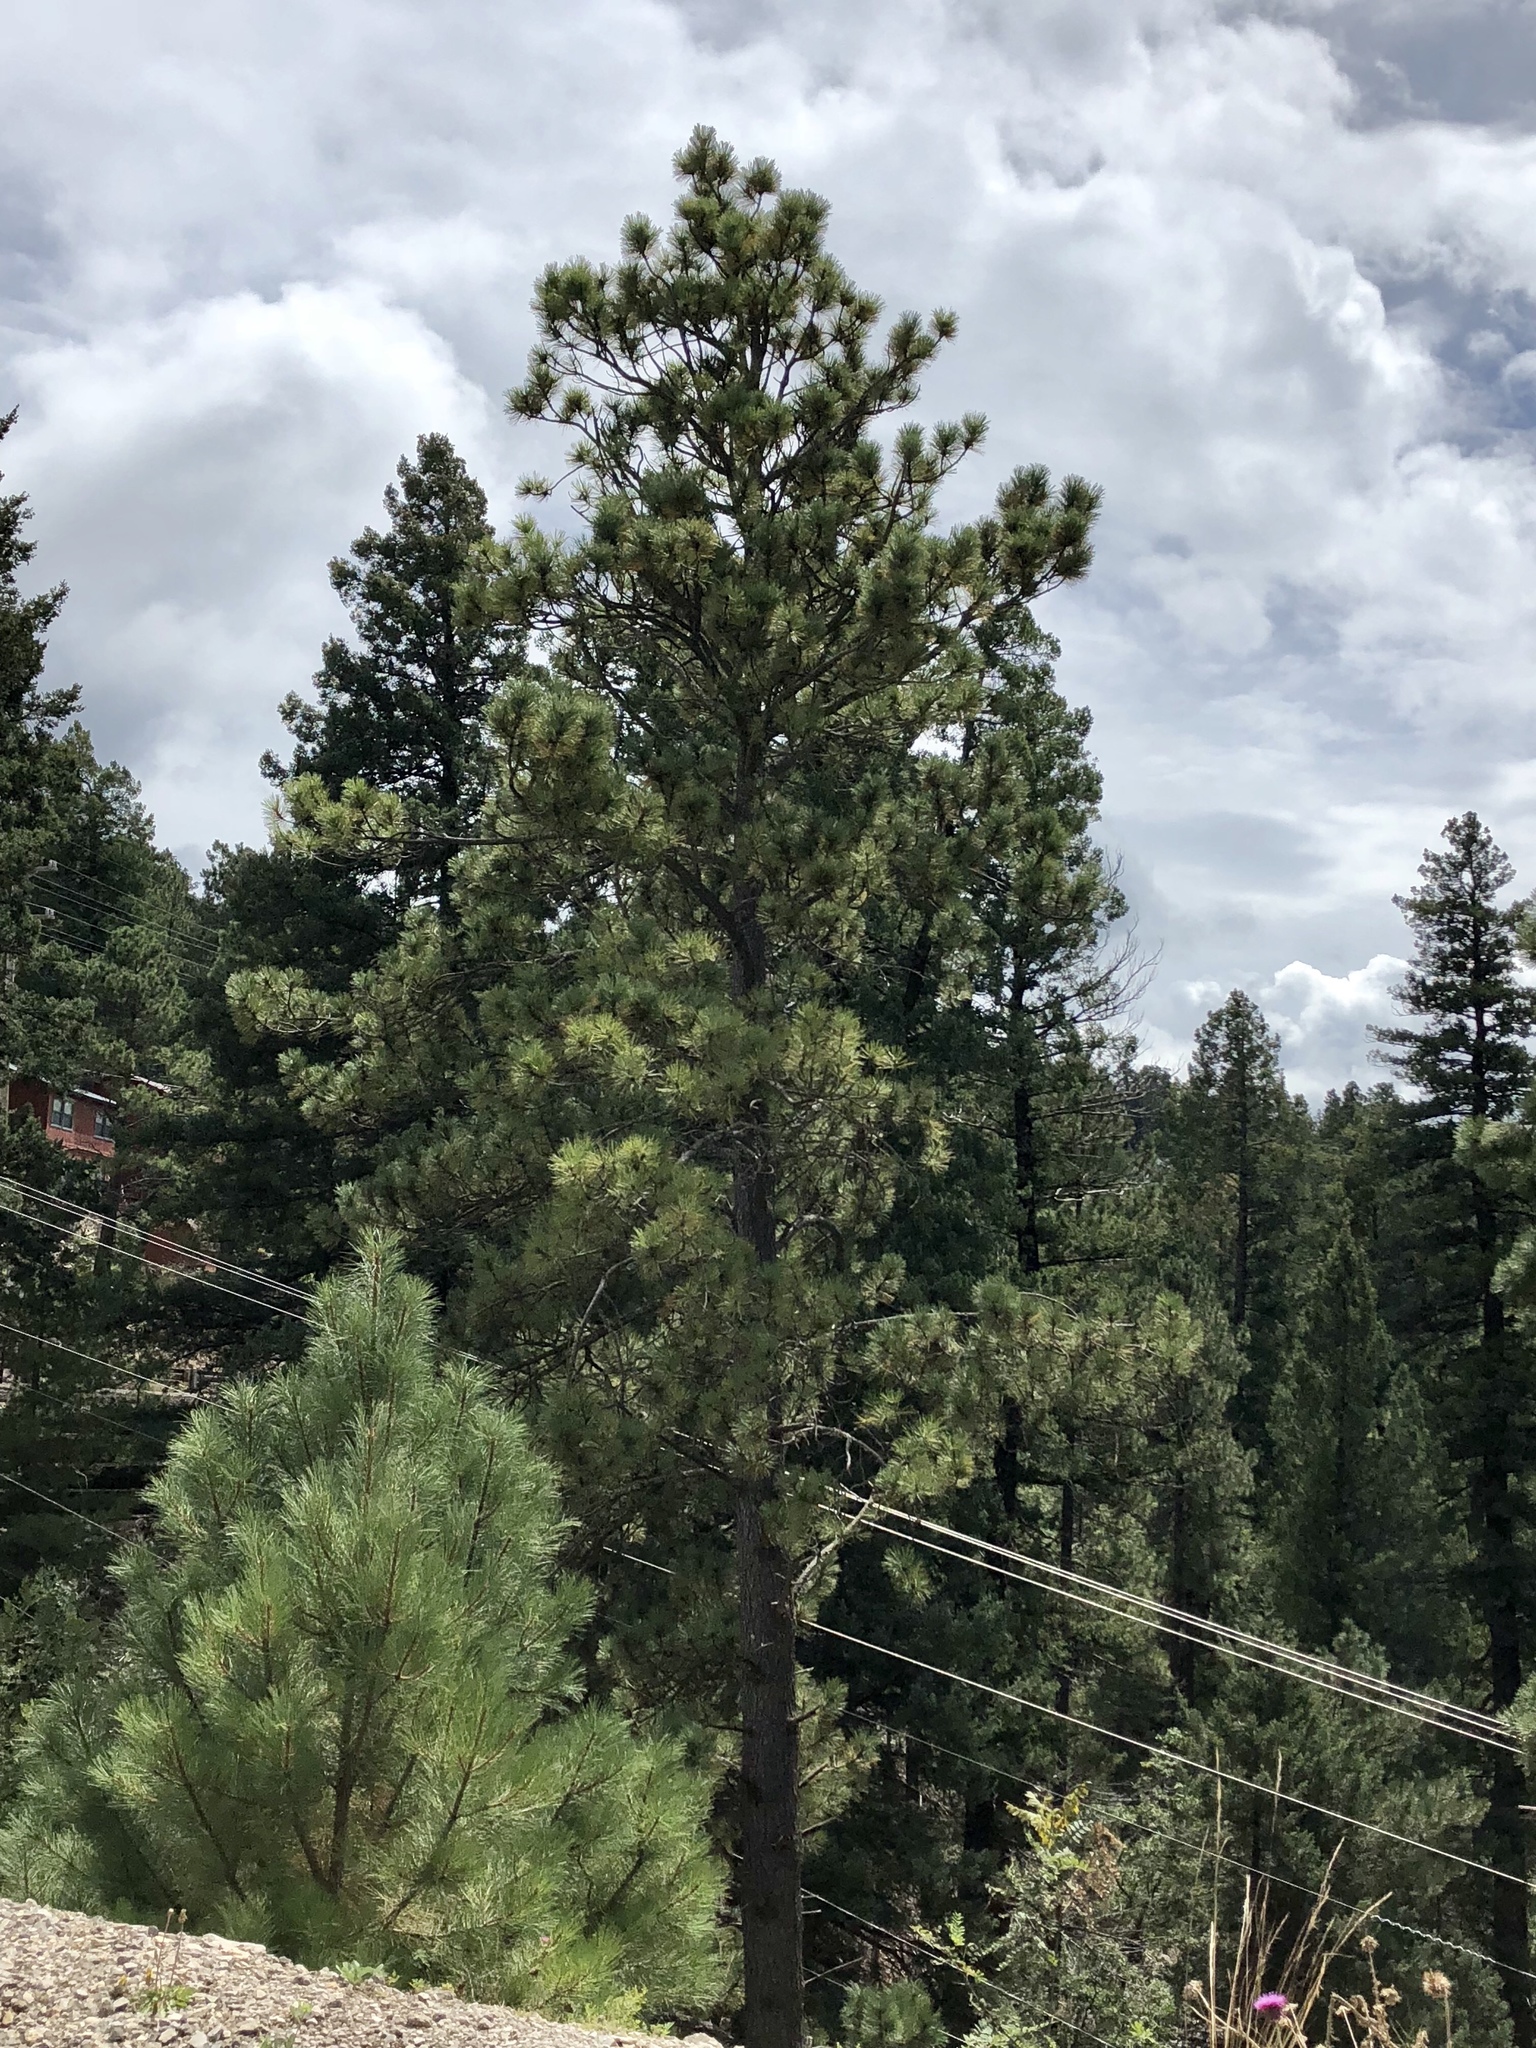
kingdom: Plantae
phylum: Tracheophyta
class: Pinopsida
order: Pinales
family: Pinaceae
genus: Pinus
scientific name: Pinus ponderosa
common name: Western yellow-pine
